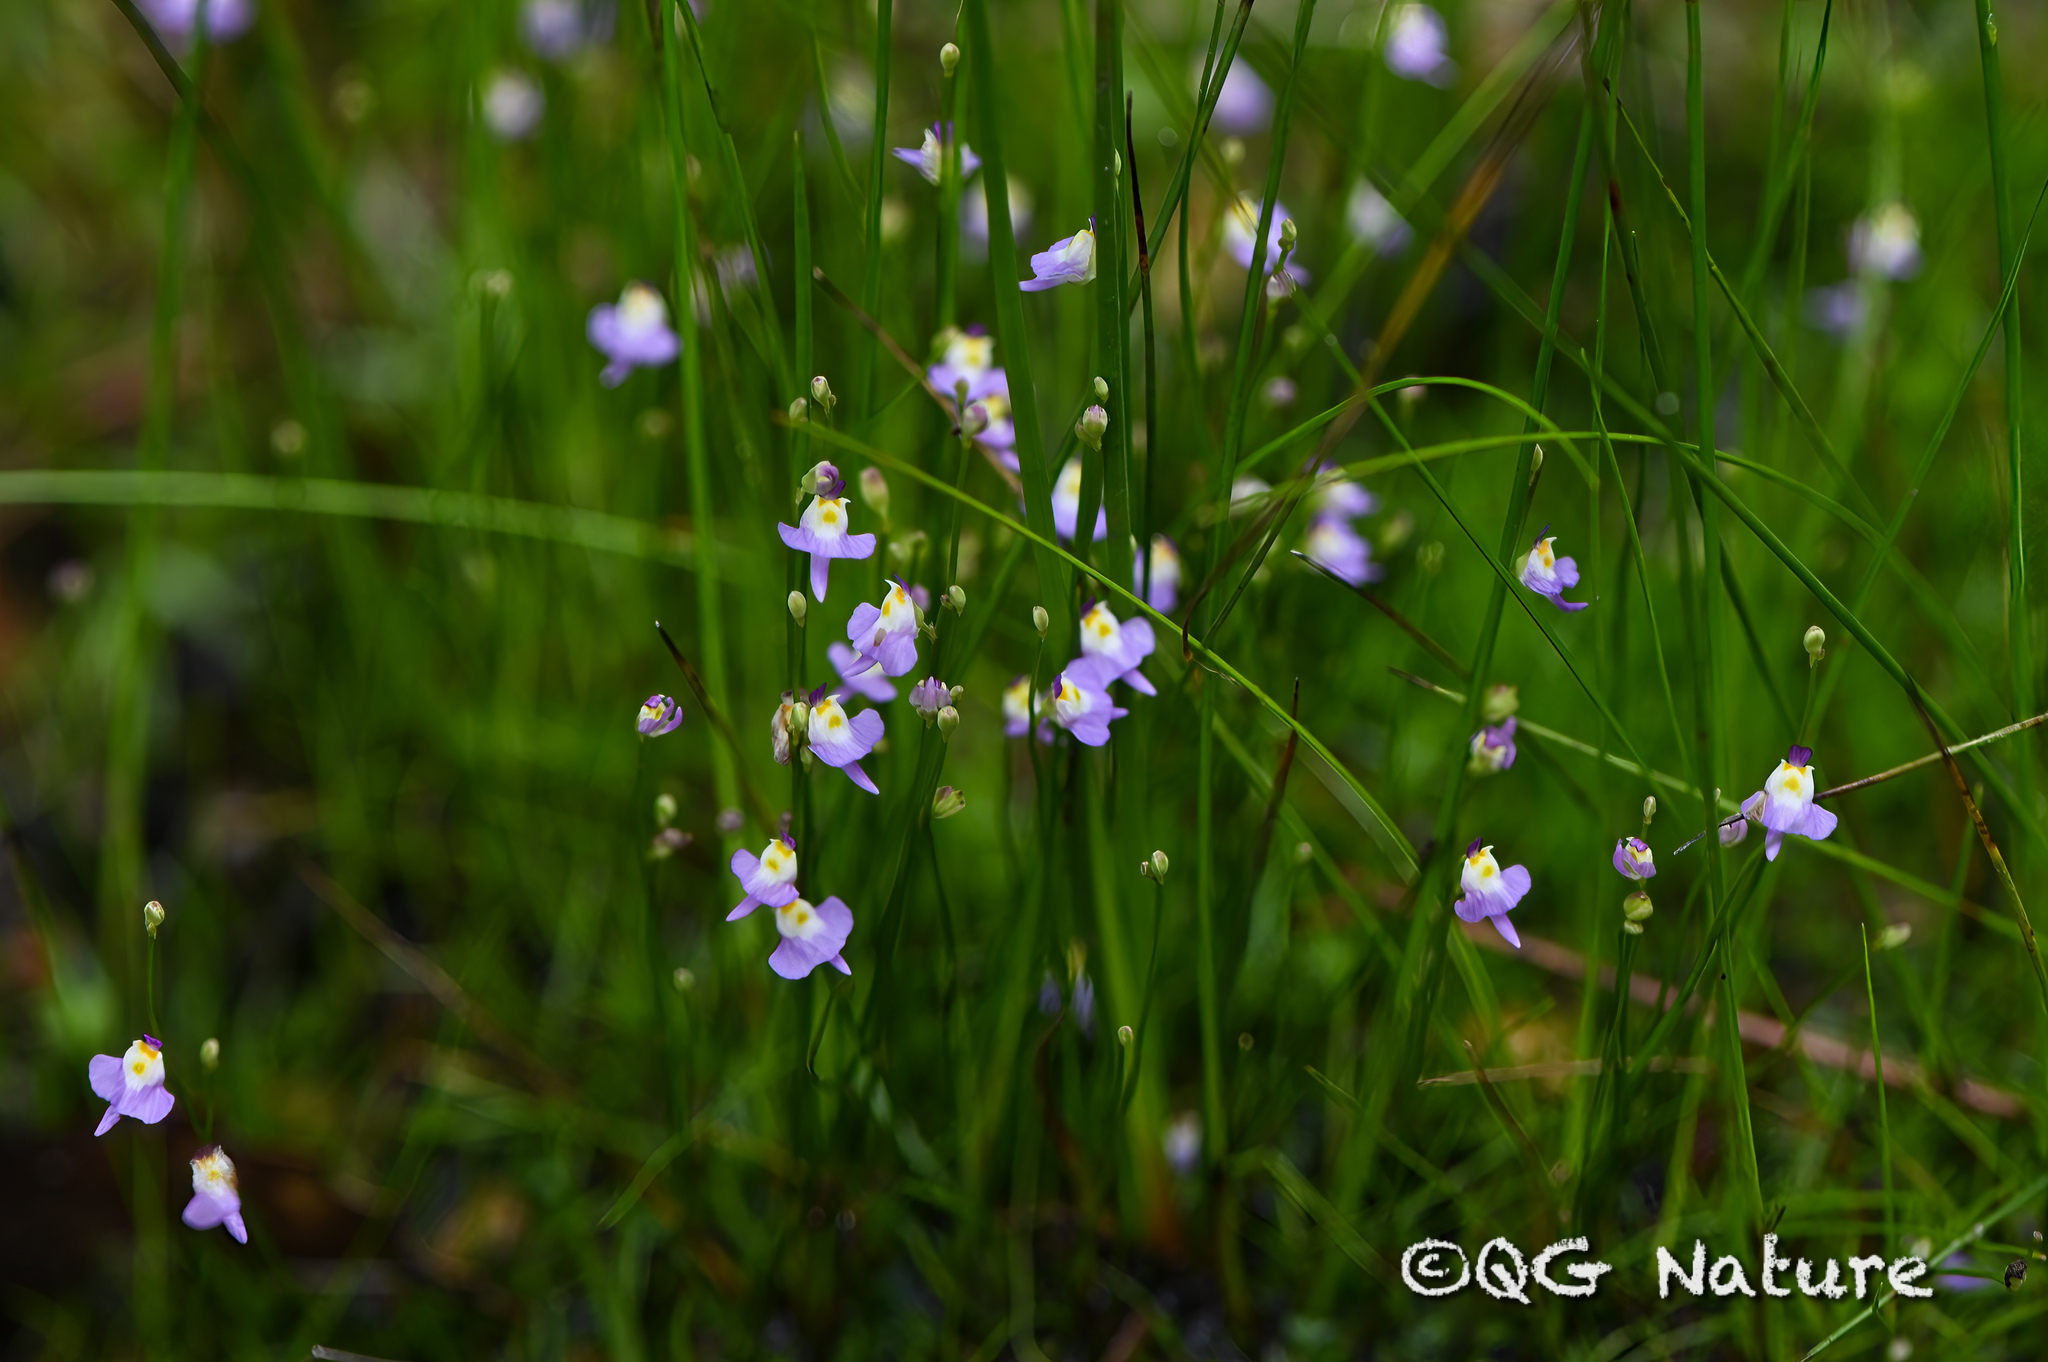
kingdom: Plantae
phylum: Tracheophyta
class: Magnoliopsida
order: Lamiales
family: Lentibulariaceae
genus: Utricularia
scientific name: Utricularia warburgii
